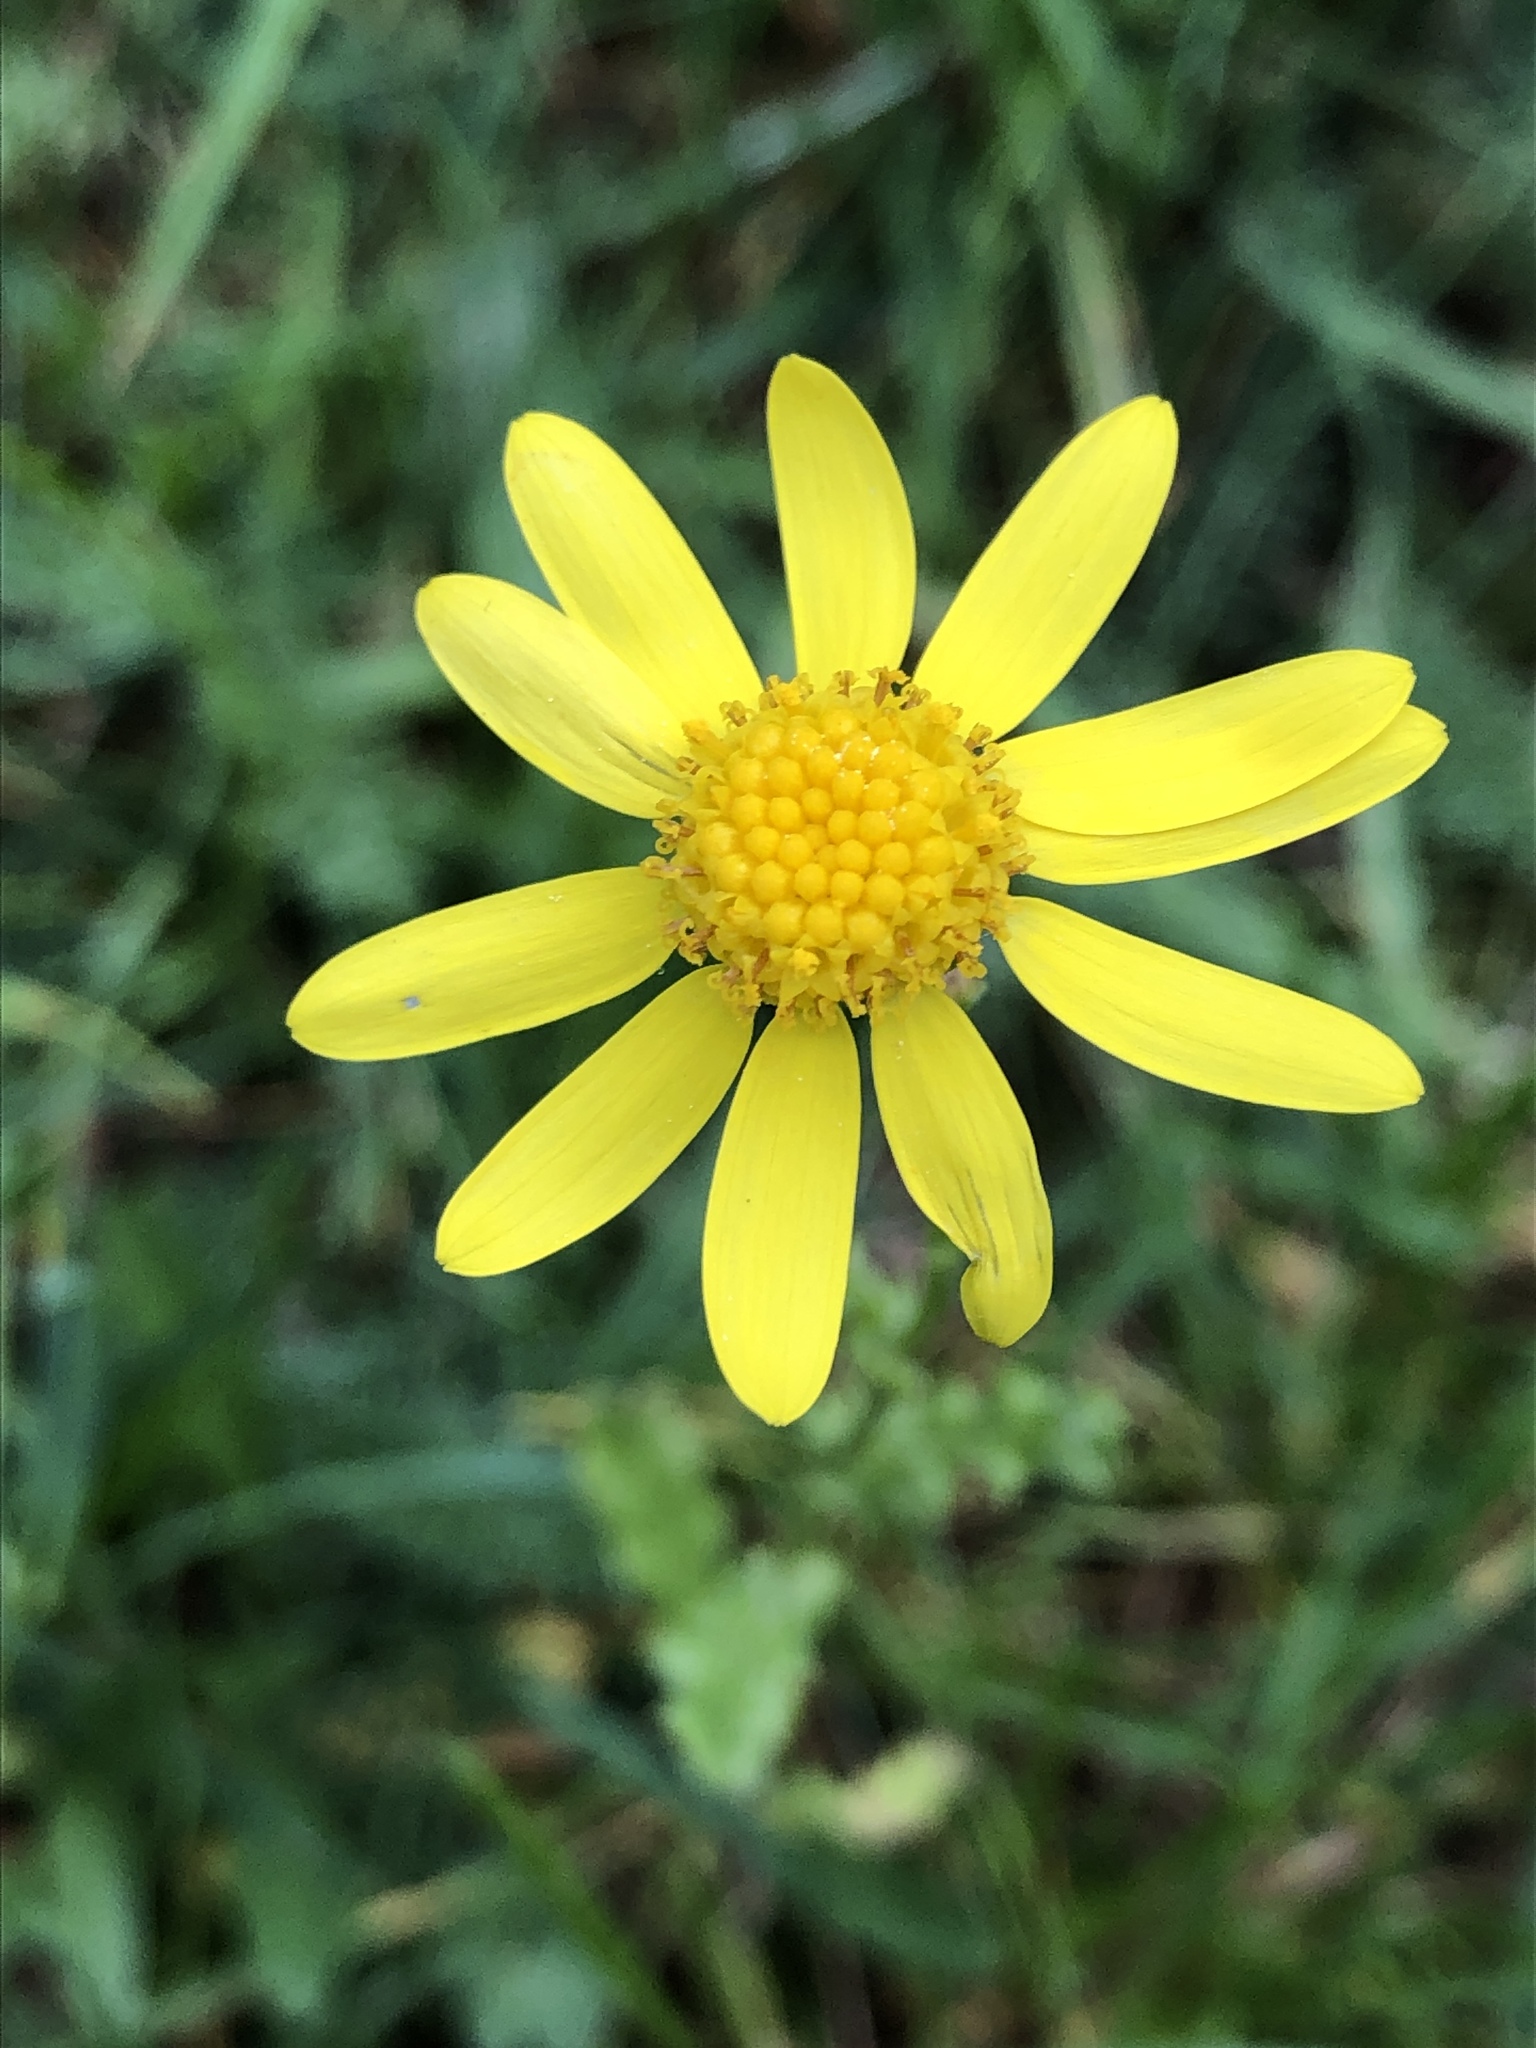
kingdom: Plantae
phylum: Tracheophyta
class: Magnoliopsida
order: Asterales
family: Asteraceae
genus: Senecio
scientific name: Senecio vernalis
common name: Eastern groundsel
